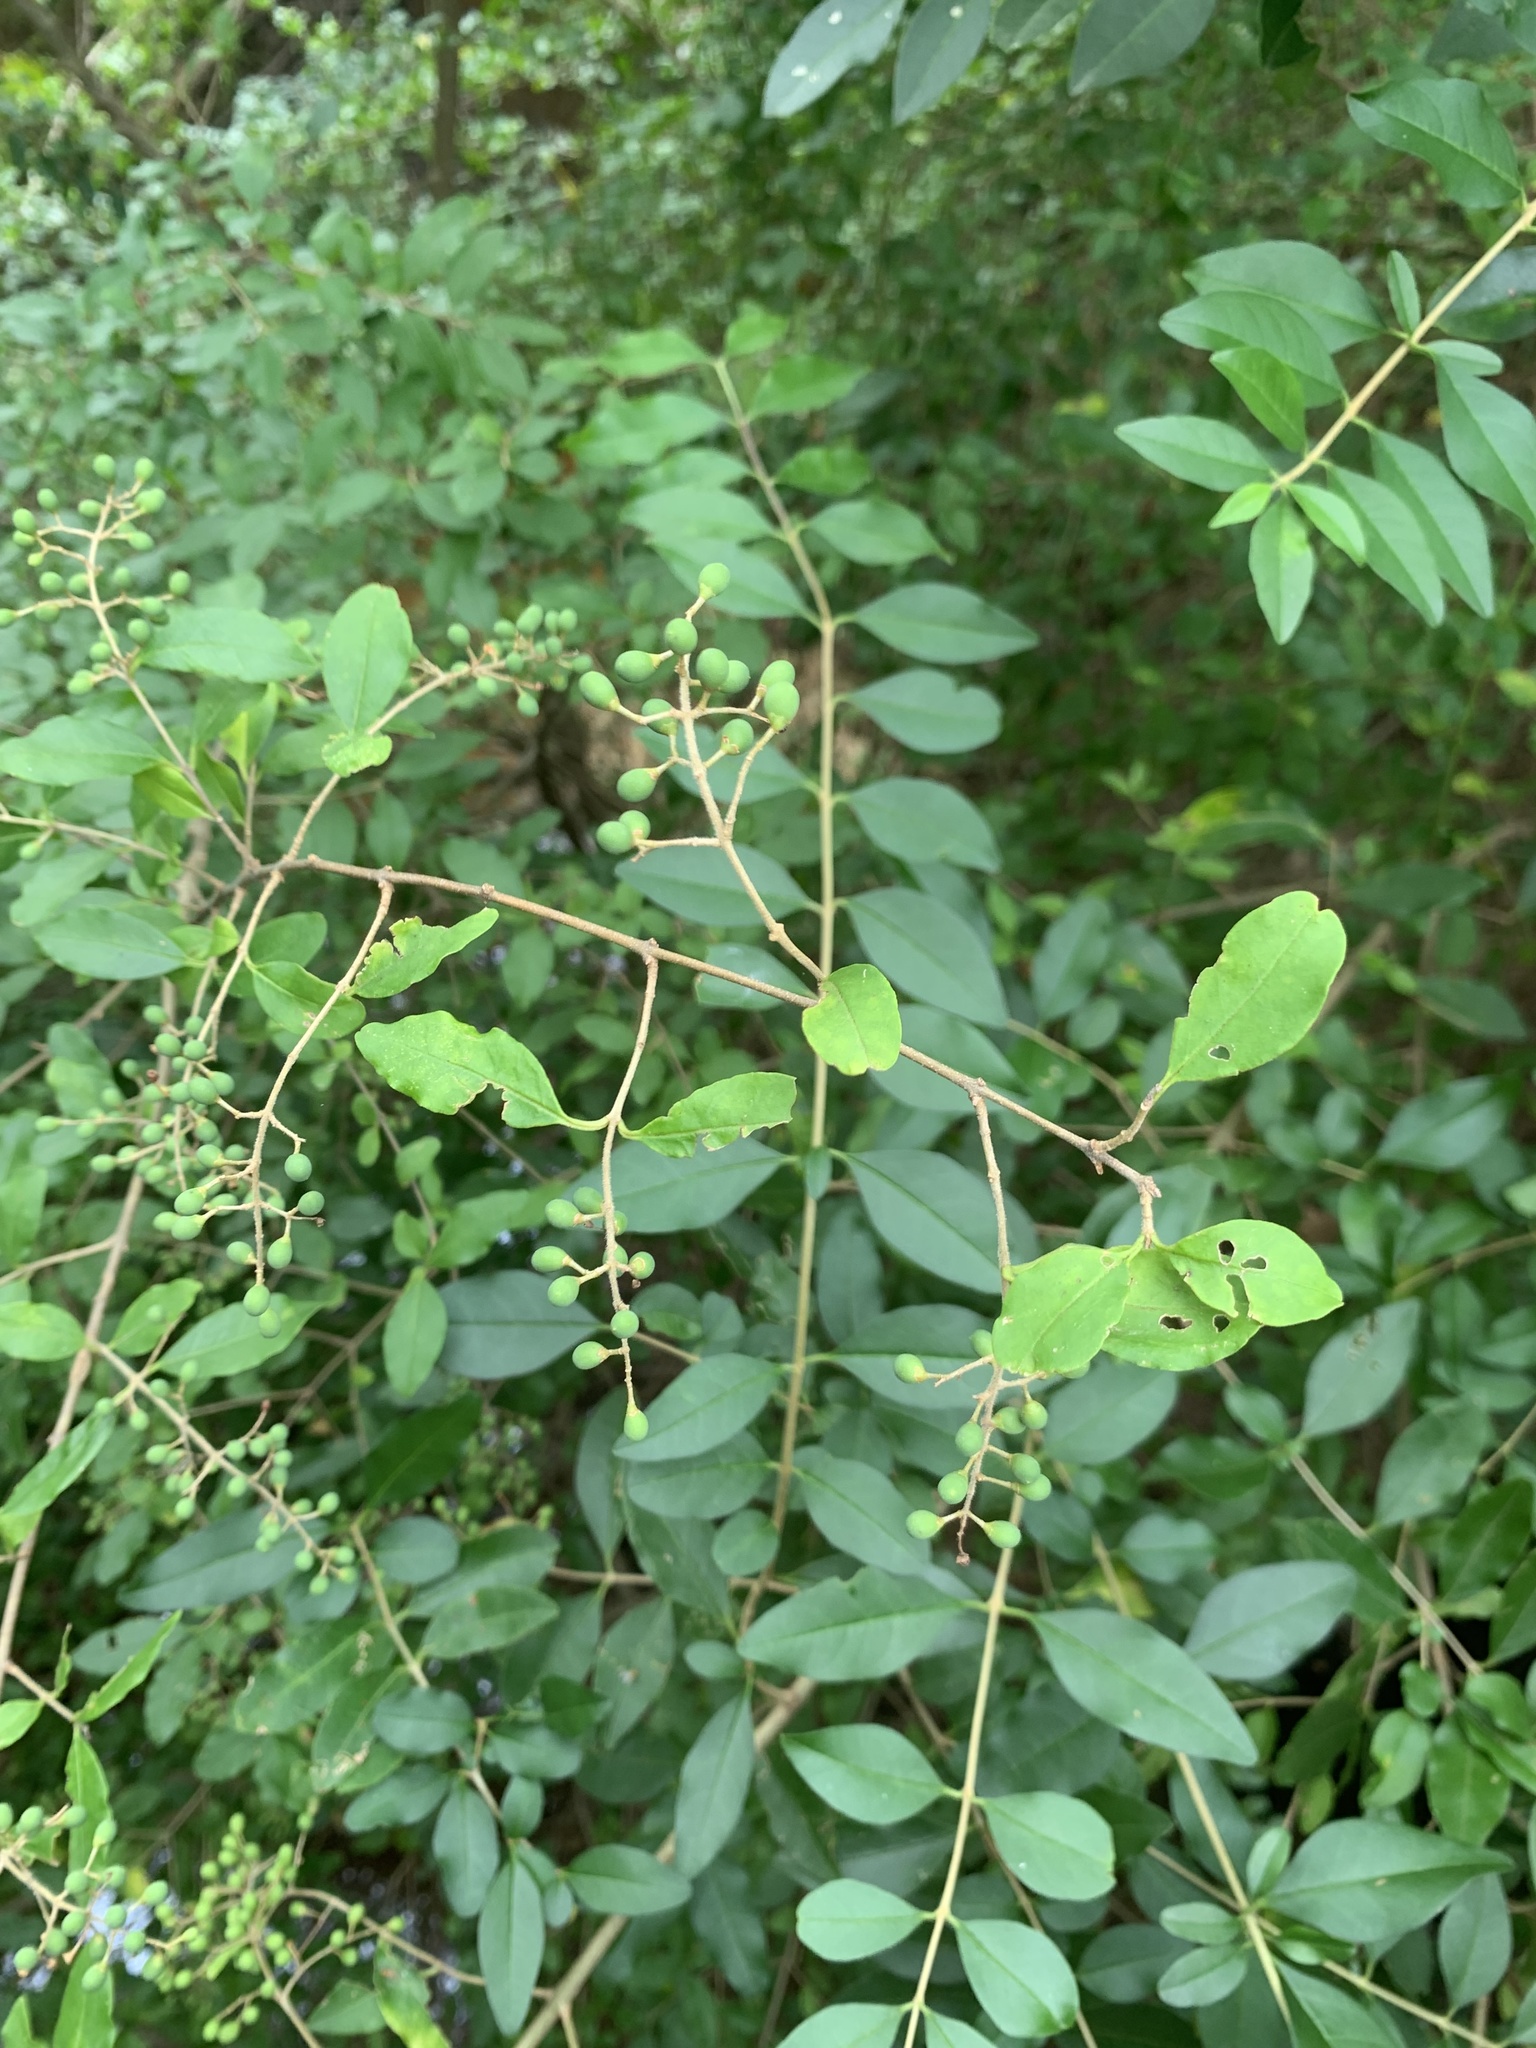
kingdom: Plantae
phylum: Tracheophyta
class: Magnoliopsida
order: Lamiales
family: Oleaceae
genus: Ligustrum
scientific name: Ligustrum sinense
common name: Chinese privet
